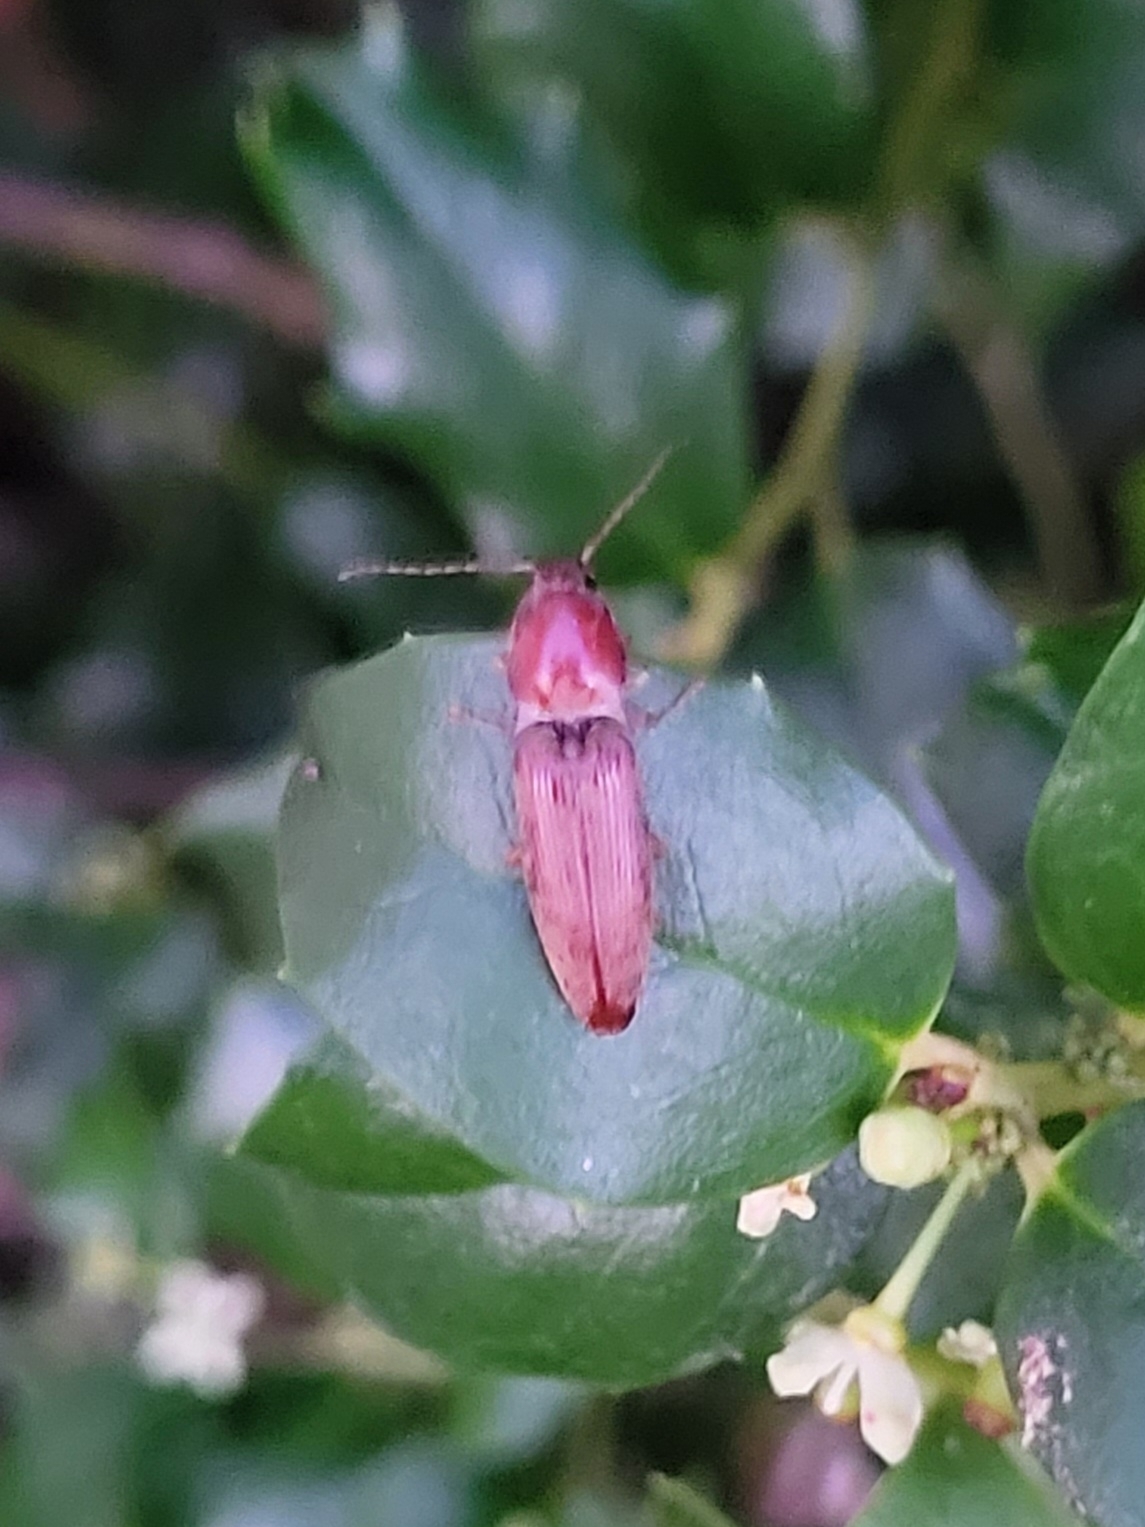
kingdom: Animalia
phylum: Arthropoda
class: Insecta
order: Coleoptera
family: Elateridae
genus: Monocrepidius
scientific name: Monocrepidius lividus
